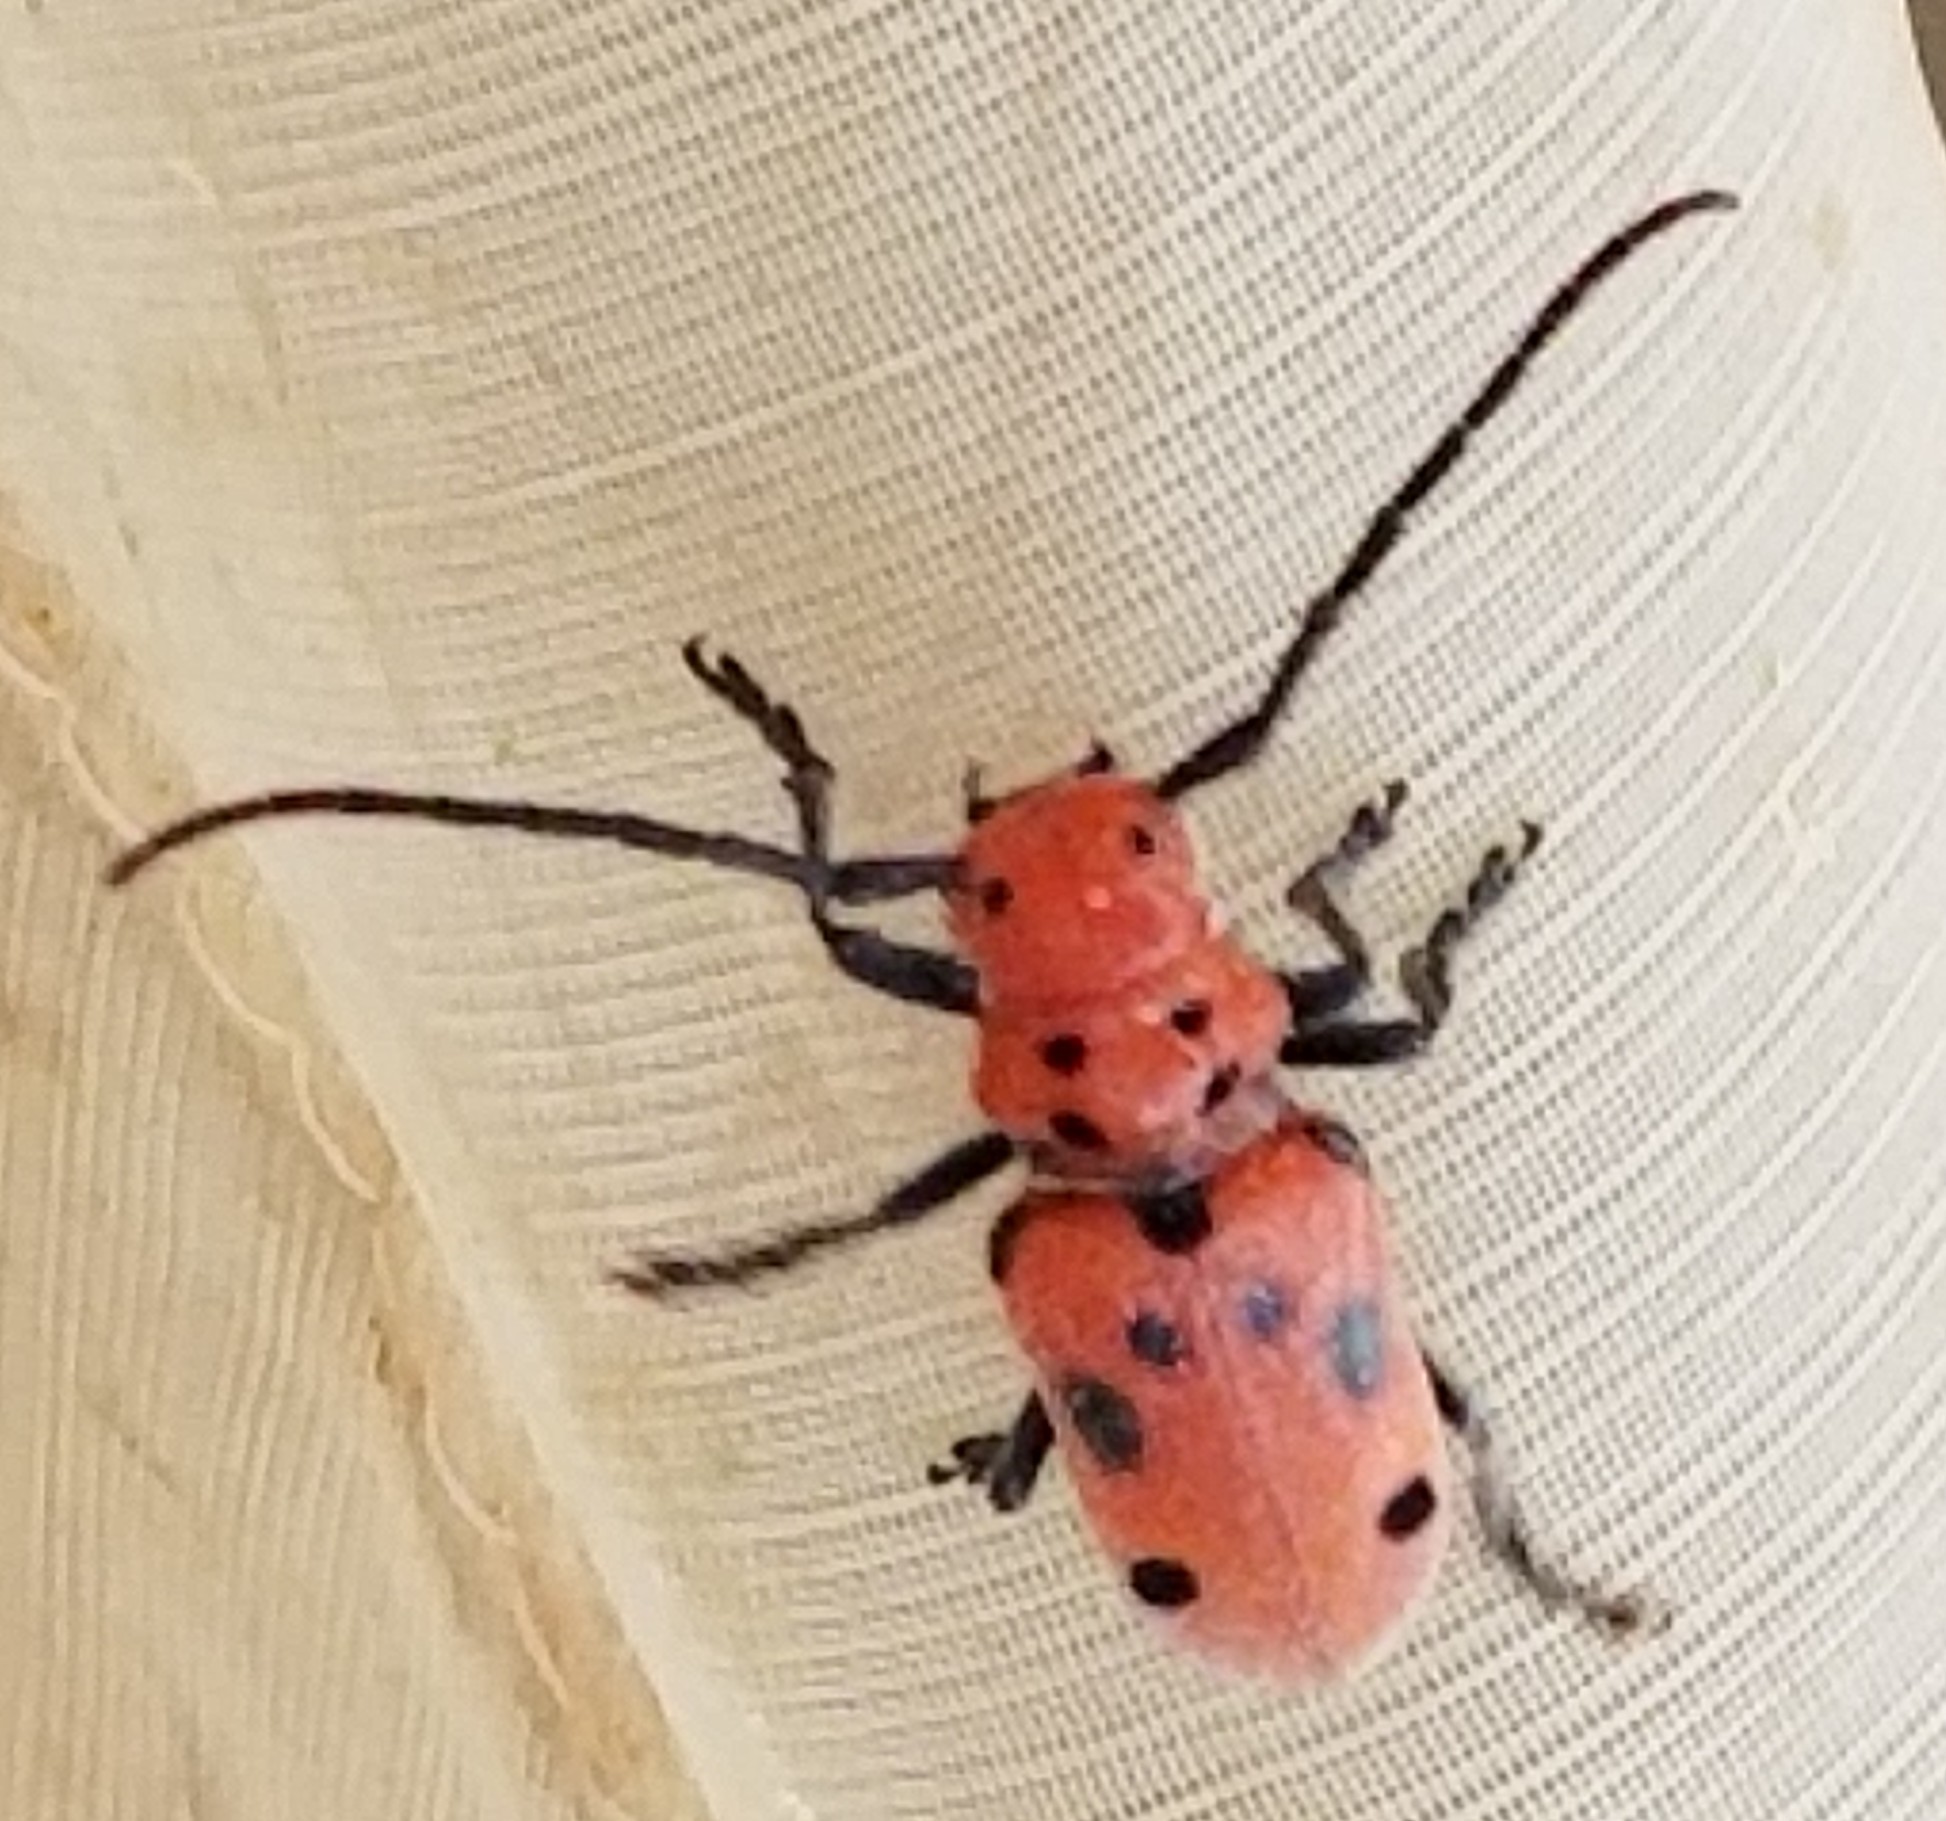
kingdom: Animalia
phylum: Arthropoda
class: Insecta
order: Coleoptera
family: Cerambycidae
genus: Tetraopes
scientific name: Tetraopes tetrophthalmus
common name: Red milkweed beetle
